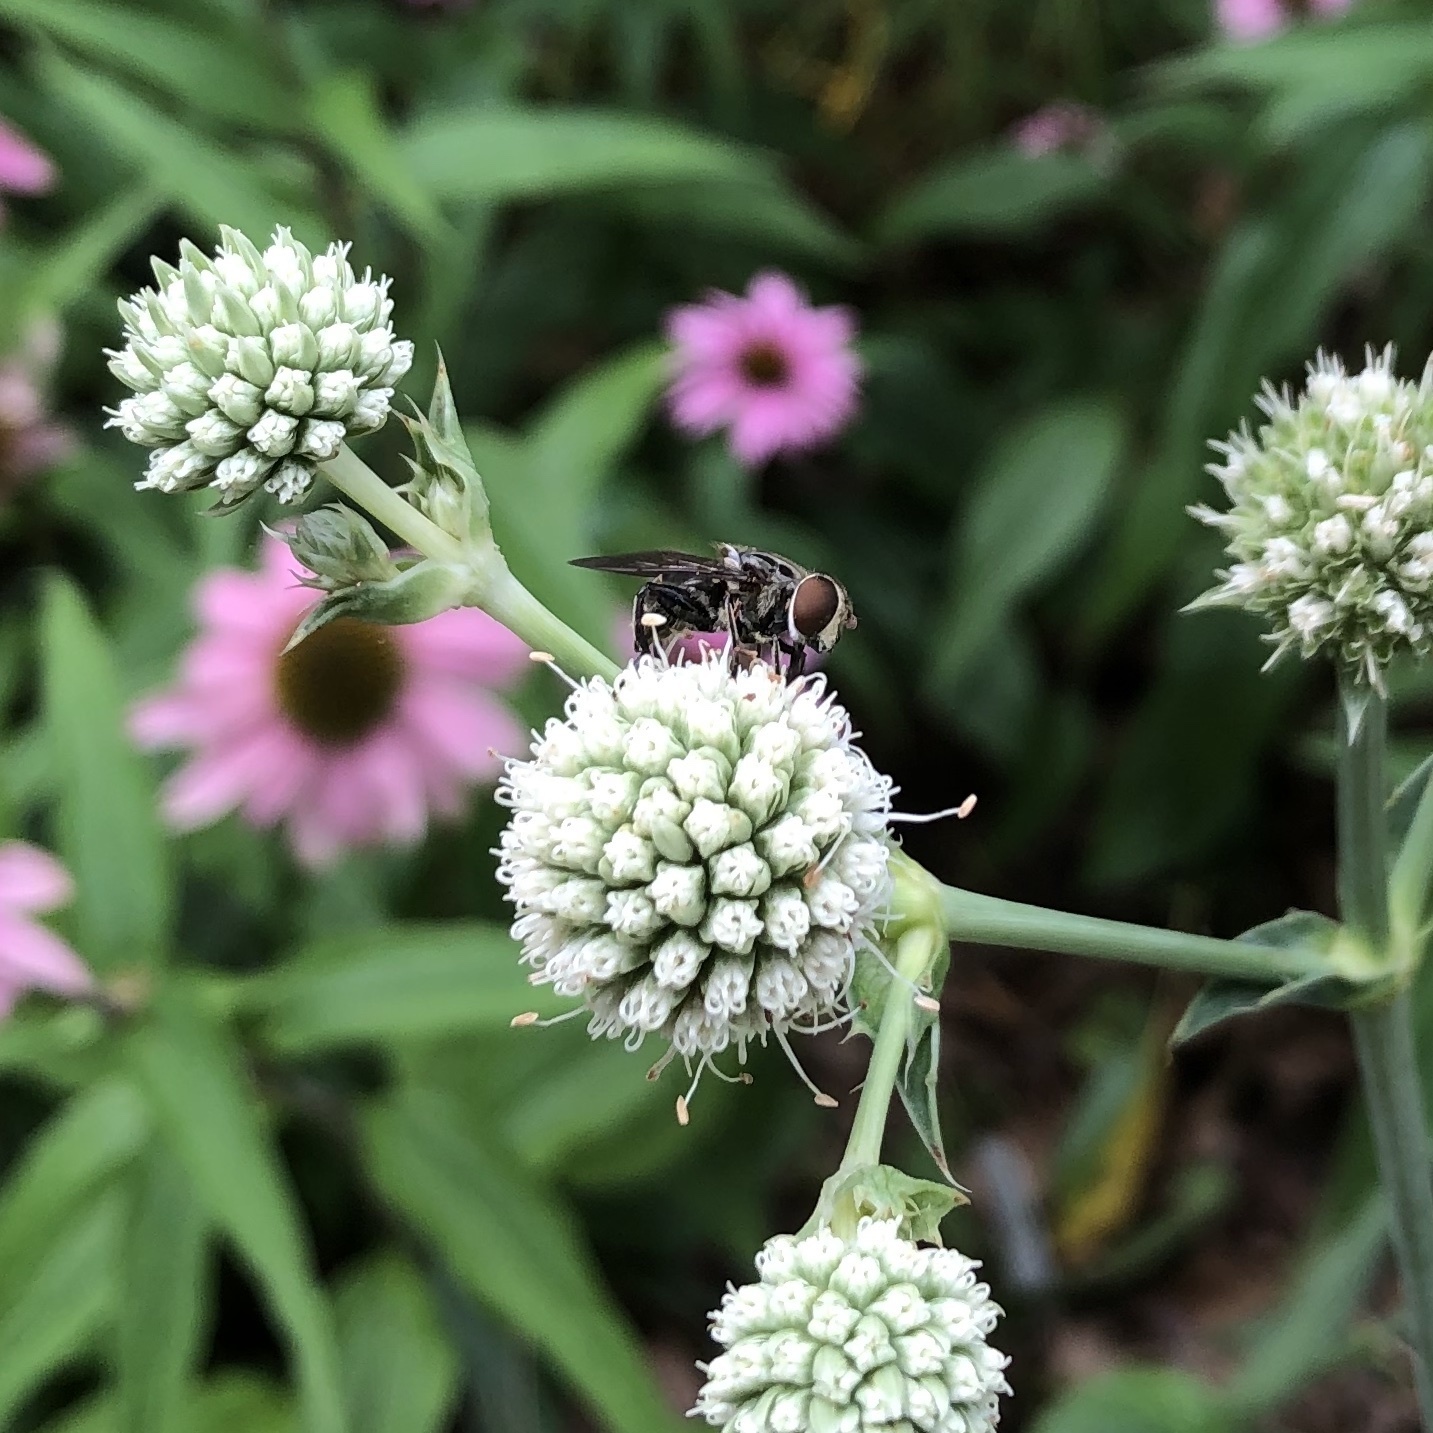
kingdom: Animalia
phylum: Arthropoda
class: Insecta
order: Diptera
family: Syrphidae
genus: Palpada
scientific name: Palpada furcata
